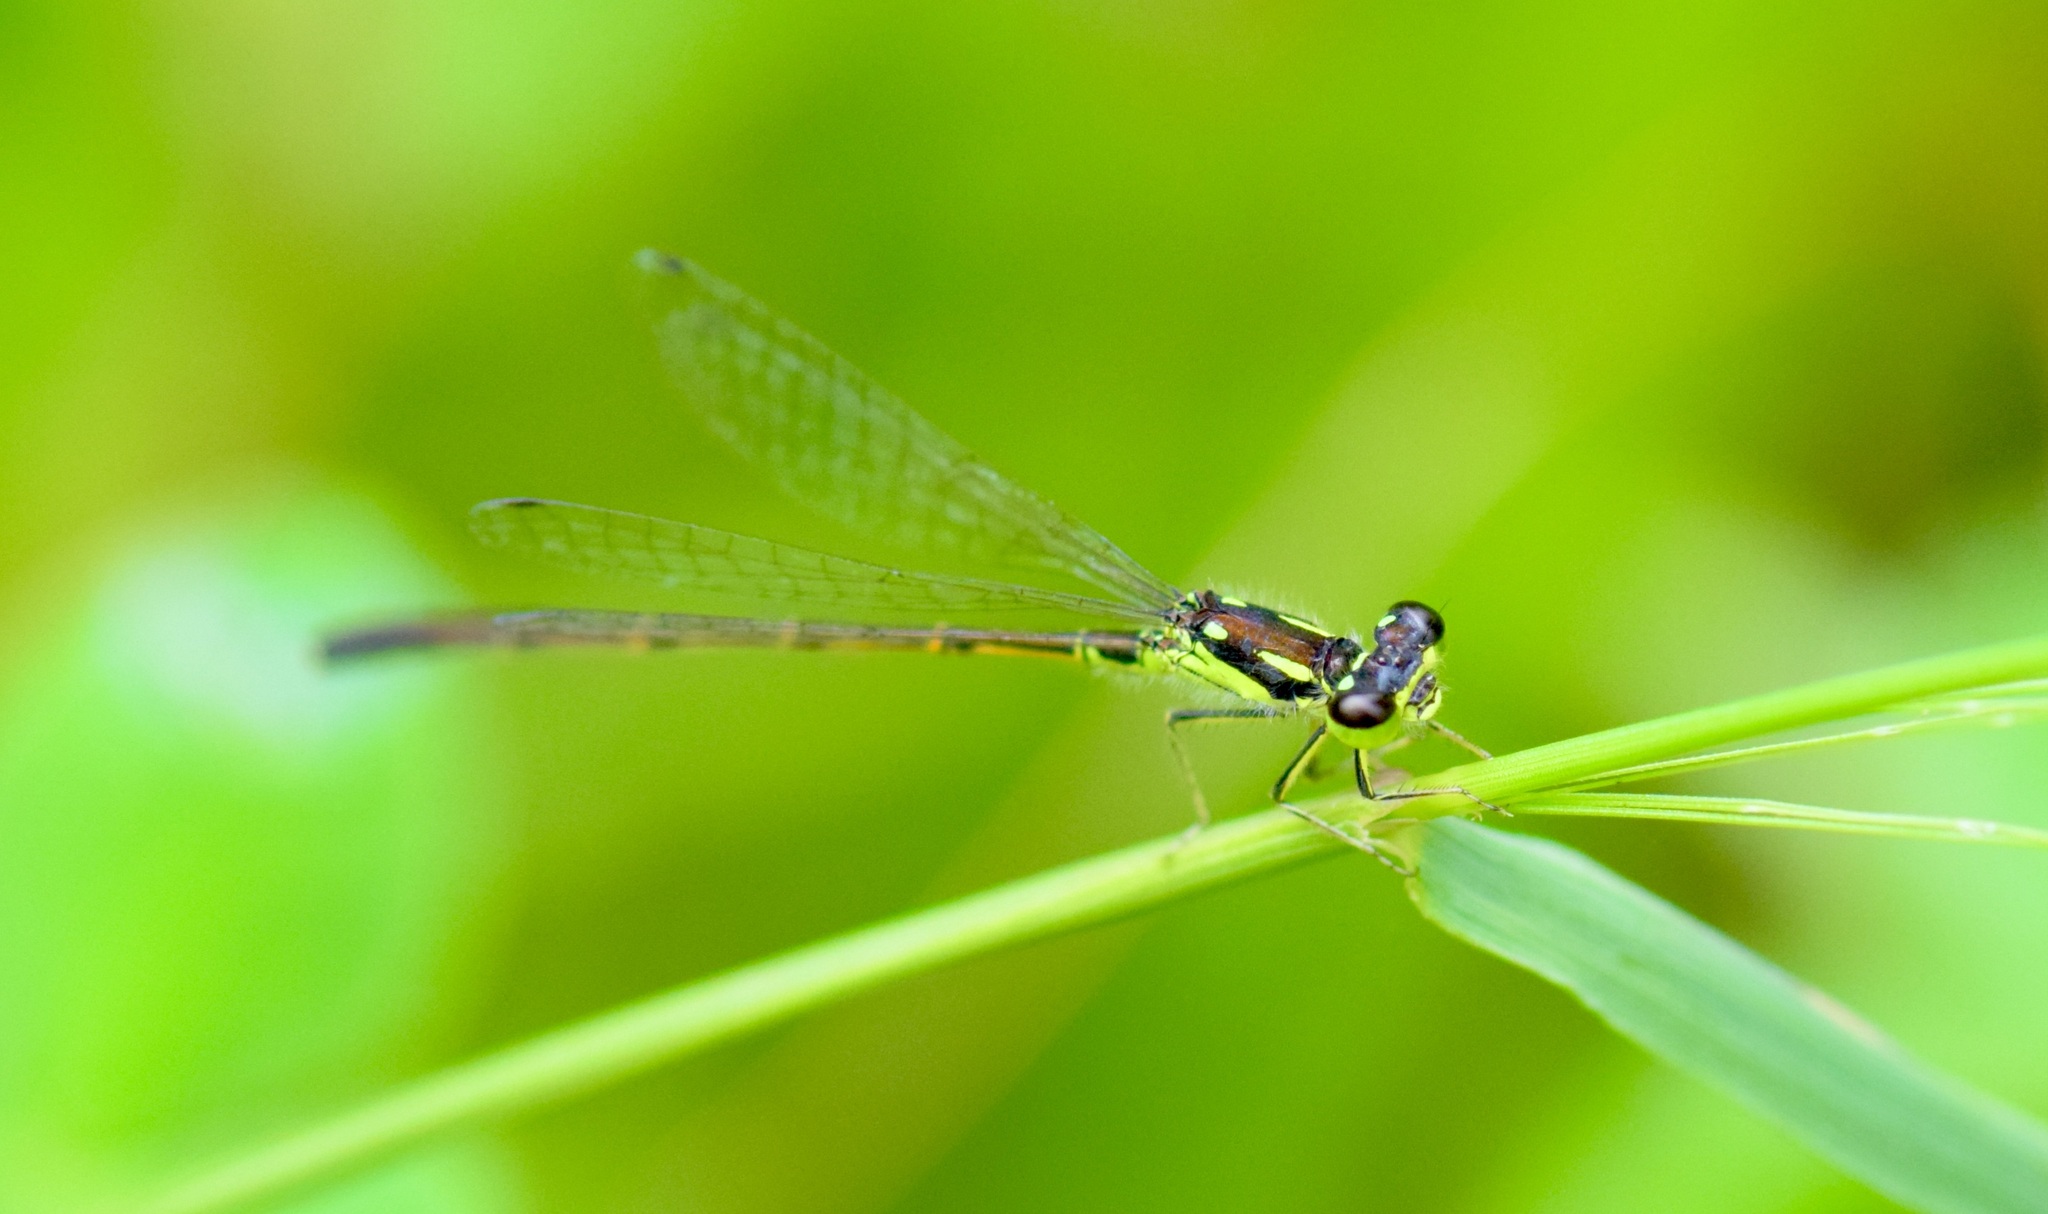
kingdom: Animalia
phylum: Arthropoda
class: Insecta
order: Odonata
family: Coenagrionidae
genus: Ischnura
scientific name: Ischnura posita
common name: Fragile forktail
